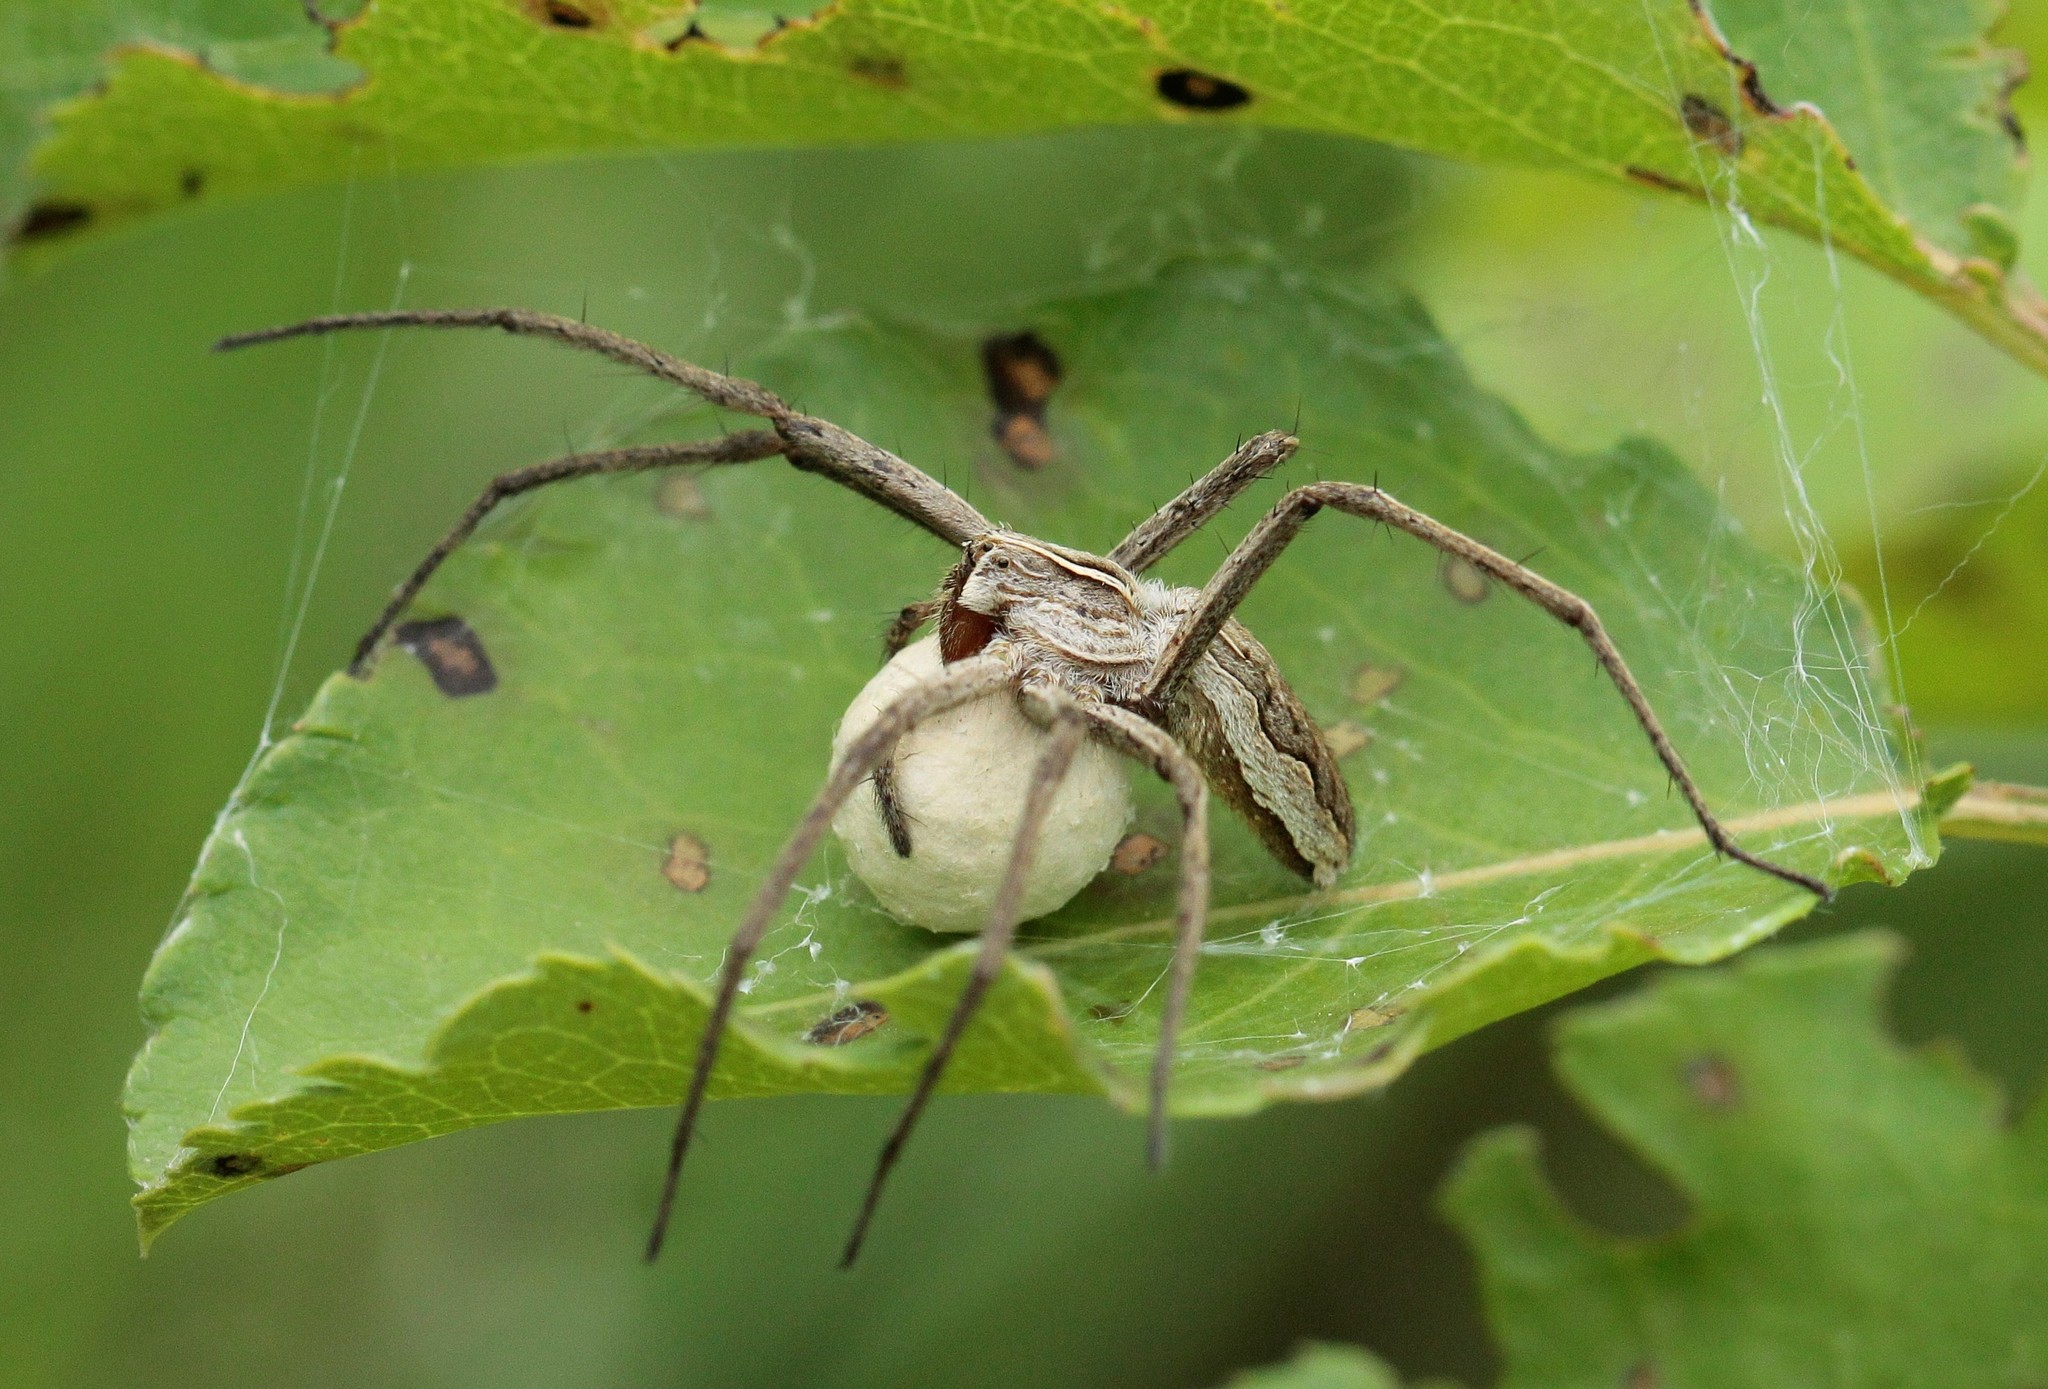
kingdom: Animalia
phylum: Arthropoda
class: Arachnida
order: Araneae
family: Pisauridae
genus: Pisaura
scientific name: Pisaura
